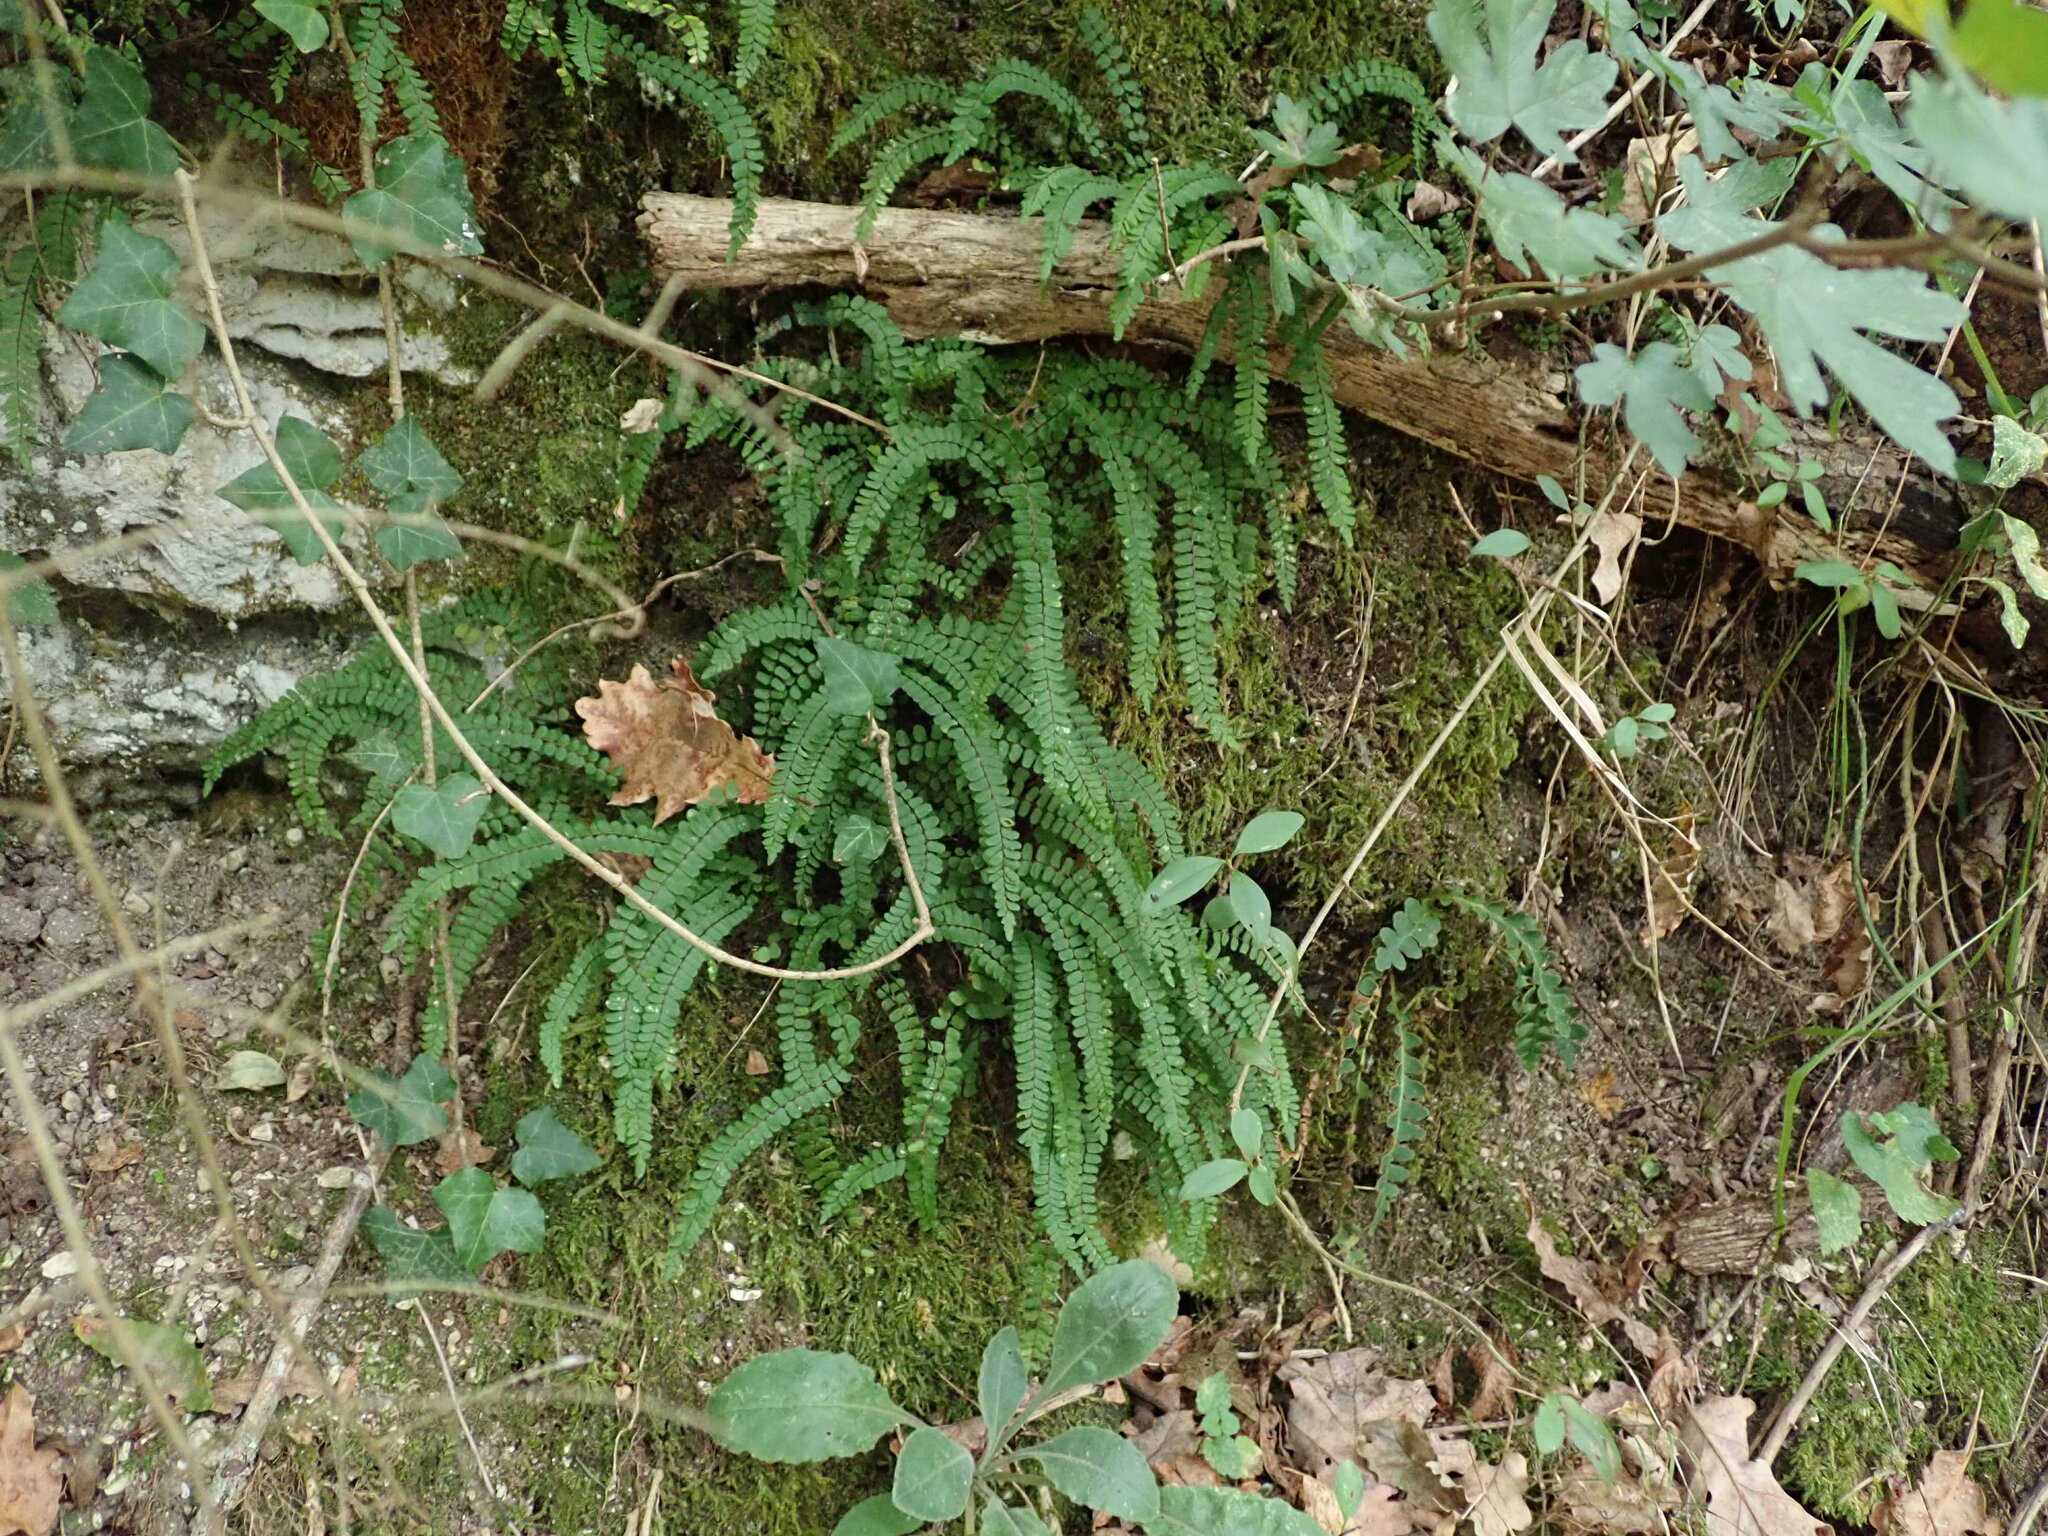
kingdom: Plantae
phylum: Tracheophyta
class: Polypodiopsida
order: Polypodiales
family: Aspleniaceae
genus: Asplenium
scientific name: Asplenium trichomanes
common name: Maidenhair spleenwort
